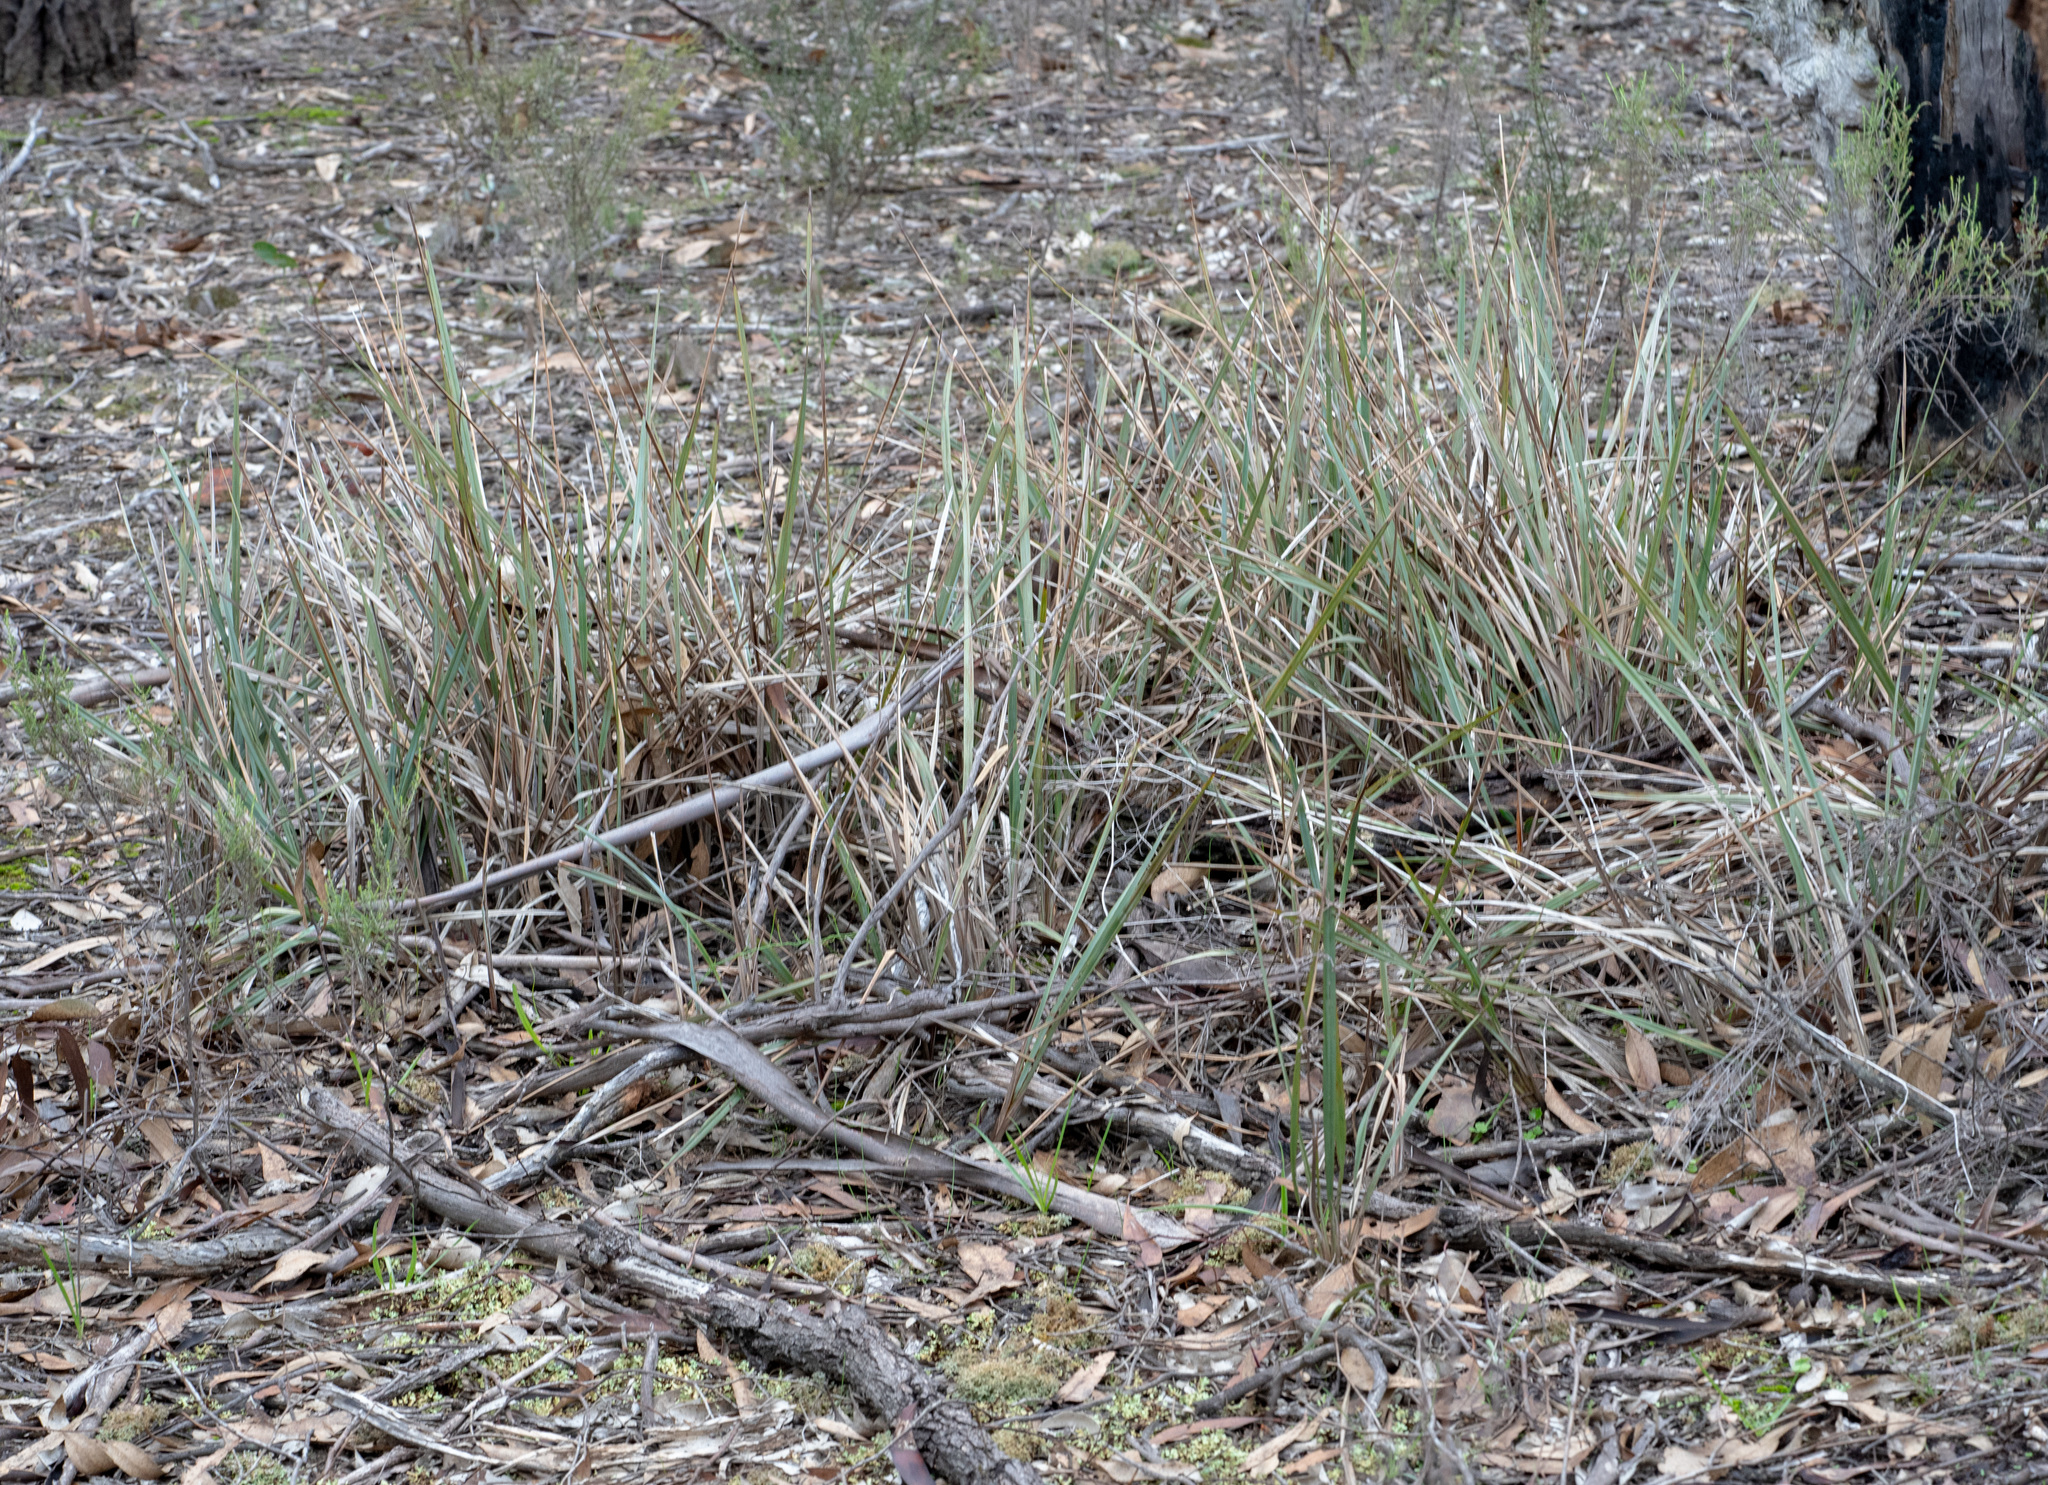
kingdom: Plantae
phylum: Tracheophyta
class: Liliopsida
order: Asparagales
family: Asphodelaceae
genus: Dianella
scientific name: Dianella revoluta
